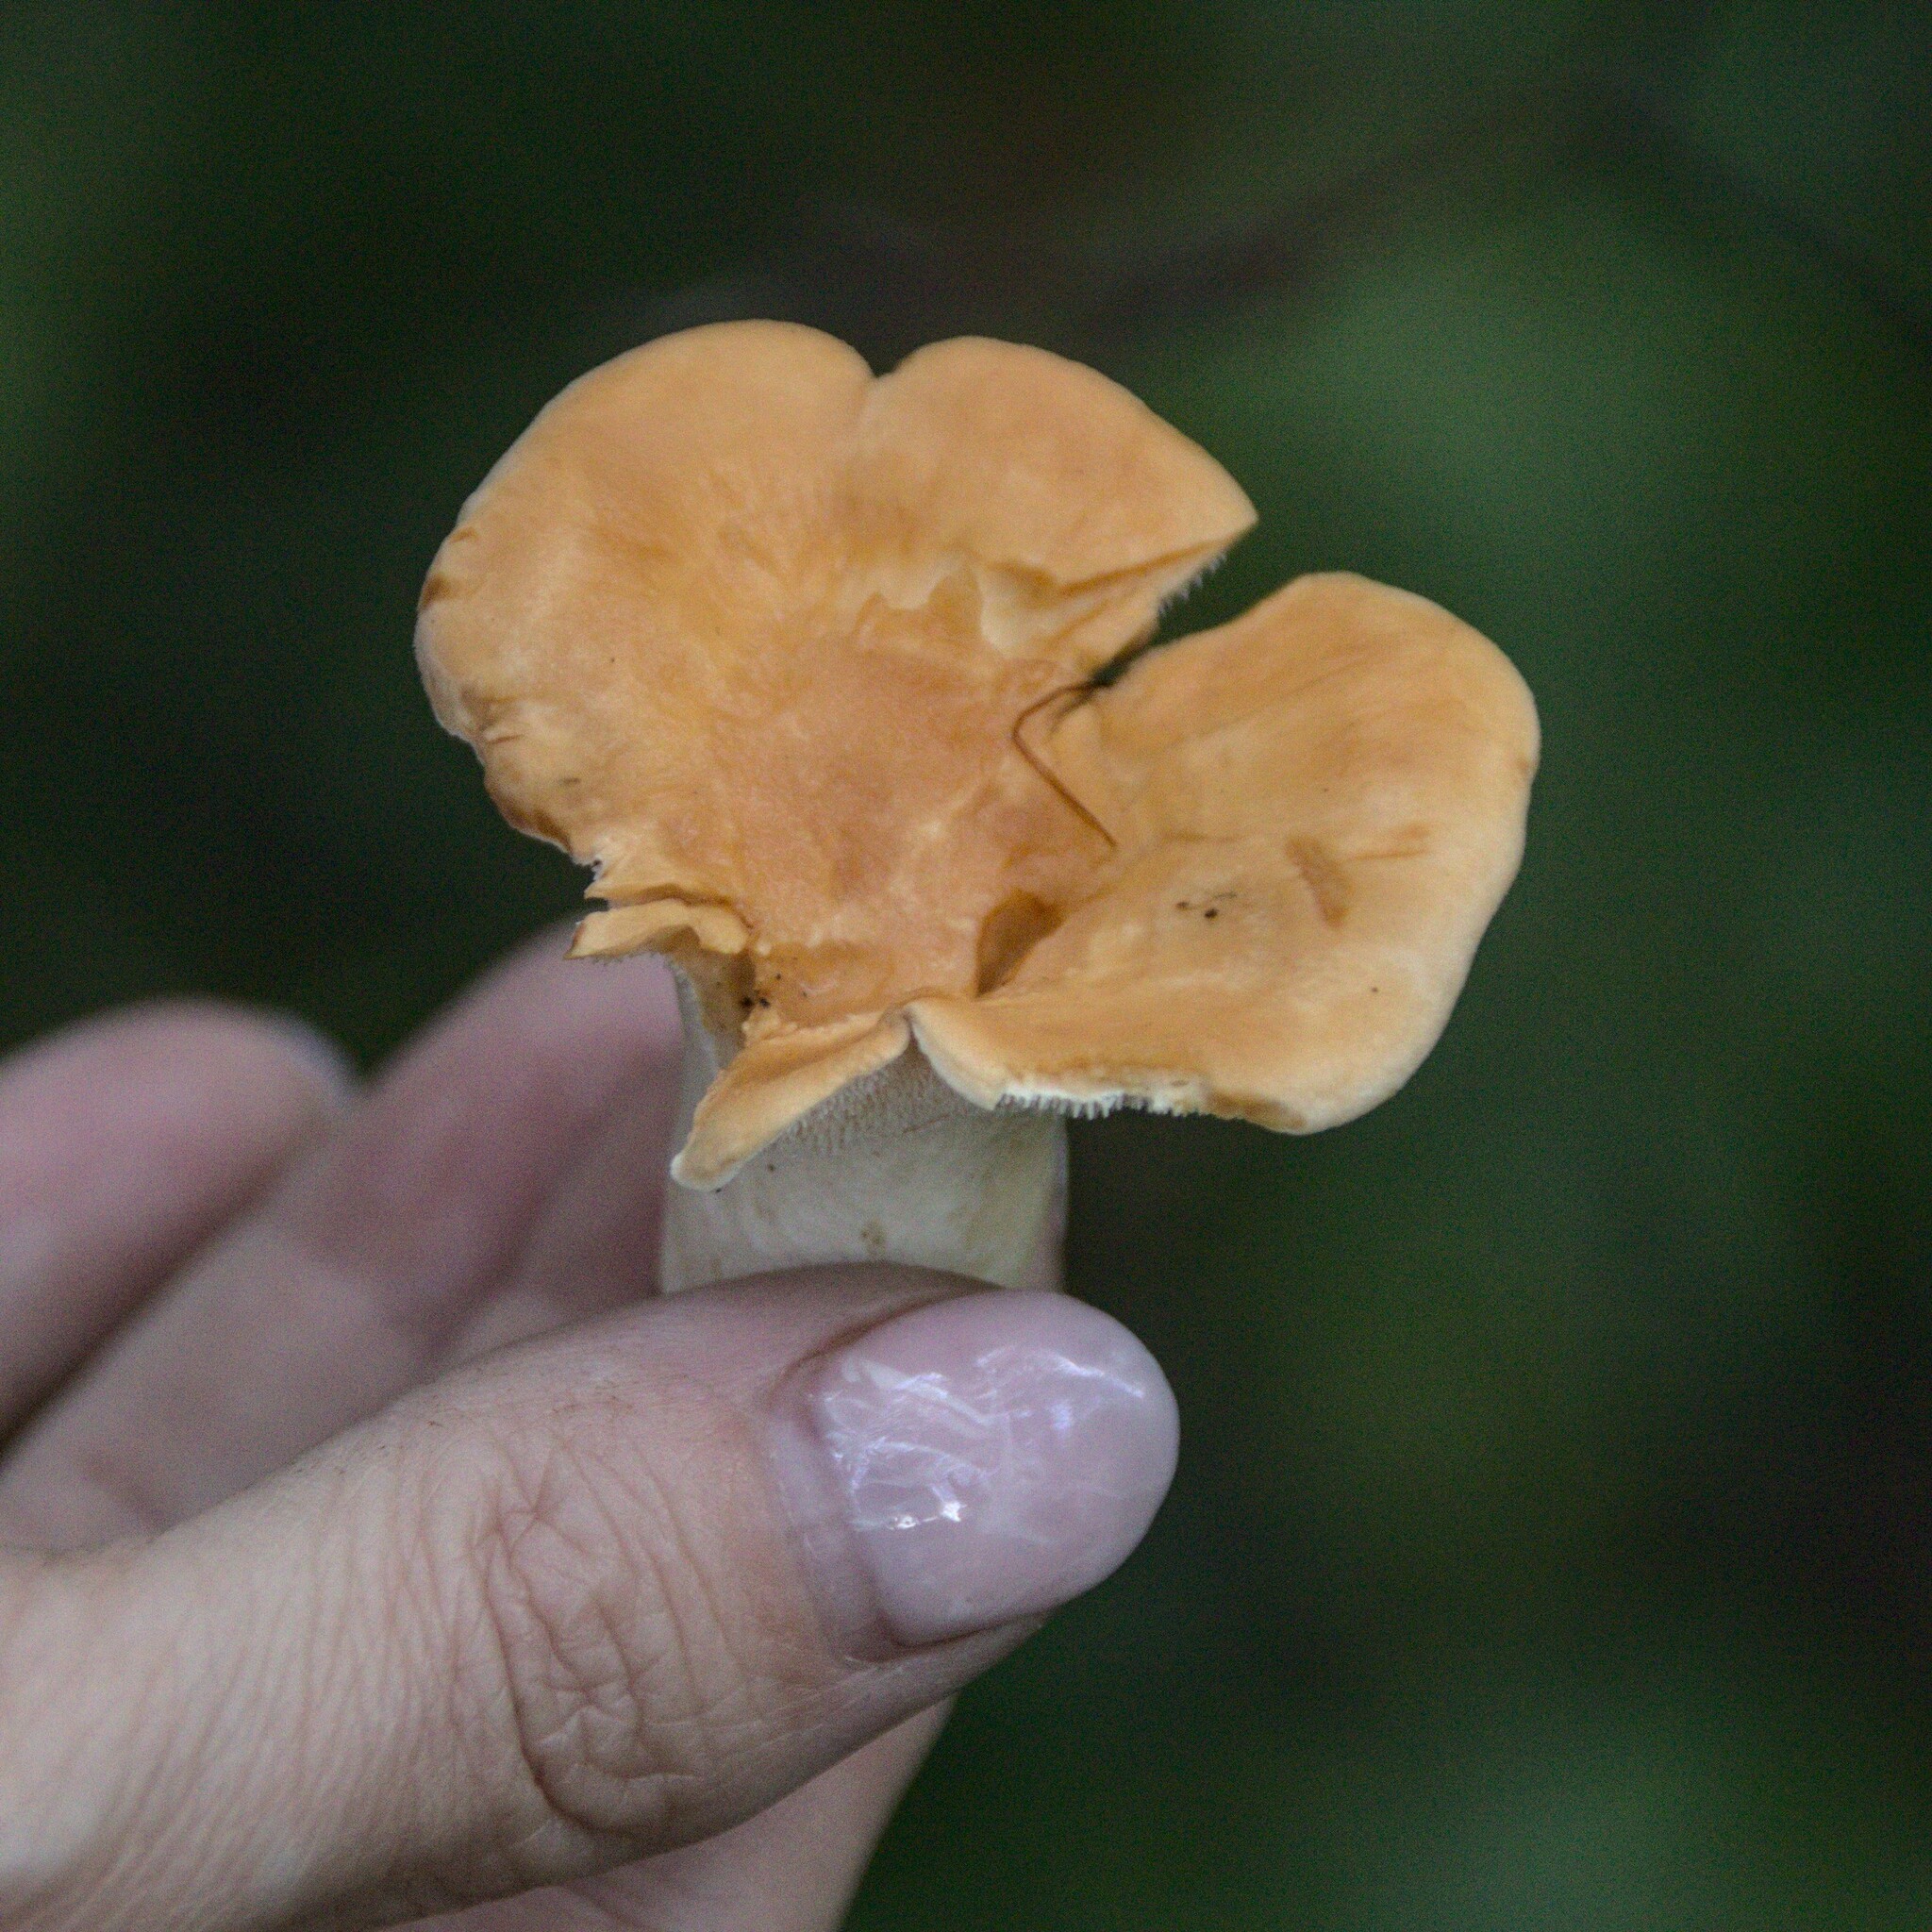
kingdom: Fungi
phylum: Basidiomycota
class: Agaricomycetes
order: Cantharellales
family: Hydnaceae
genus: Hydnum
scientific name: Hydnum repandum
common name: Wood hedgehog
